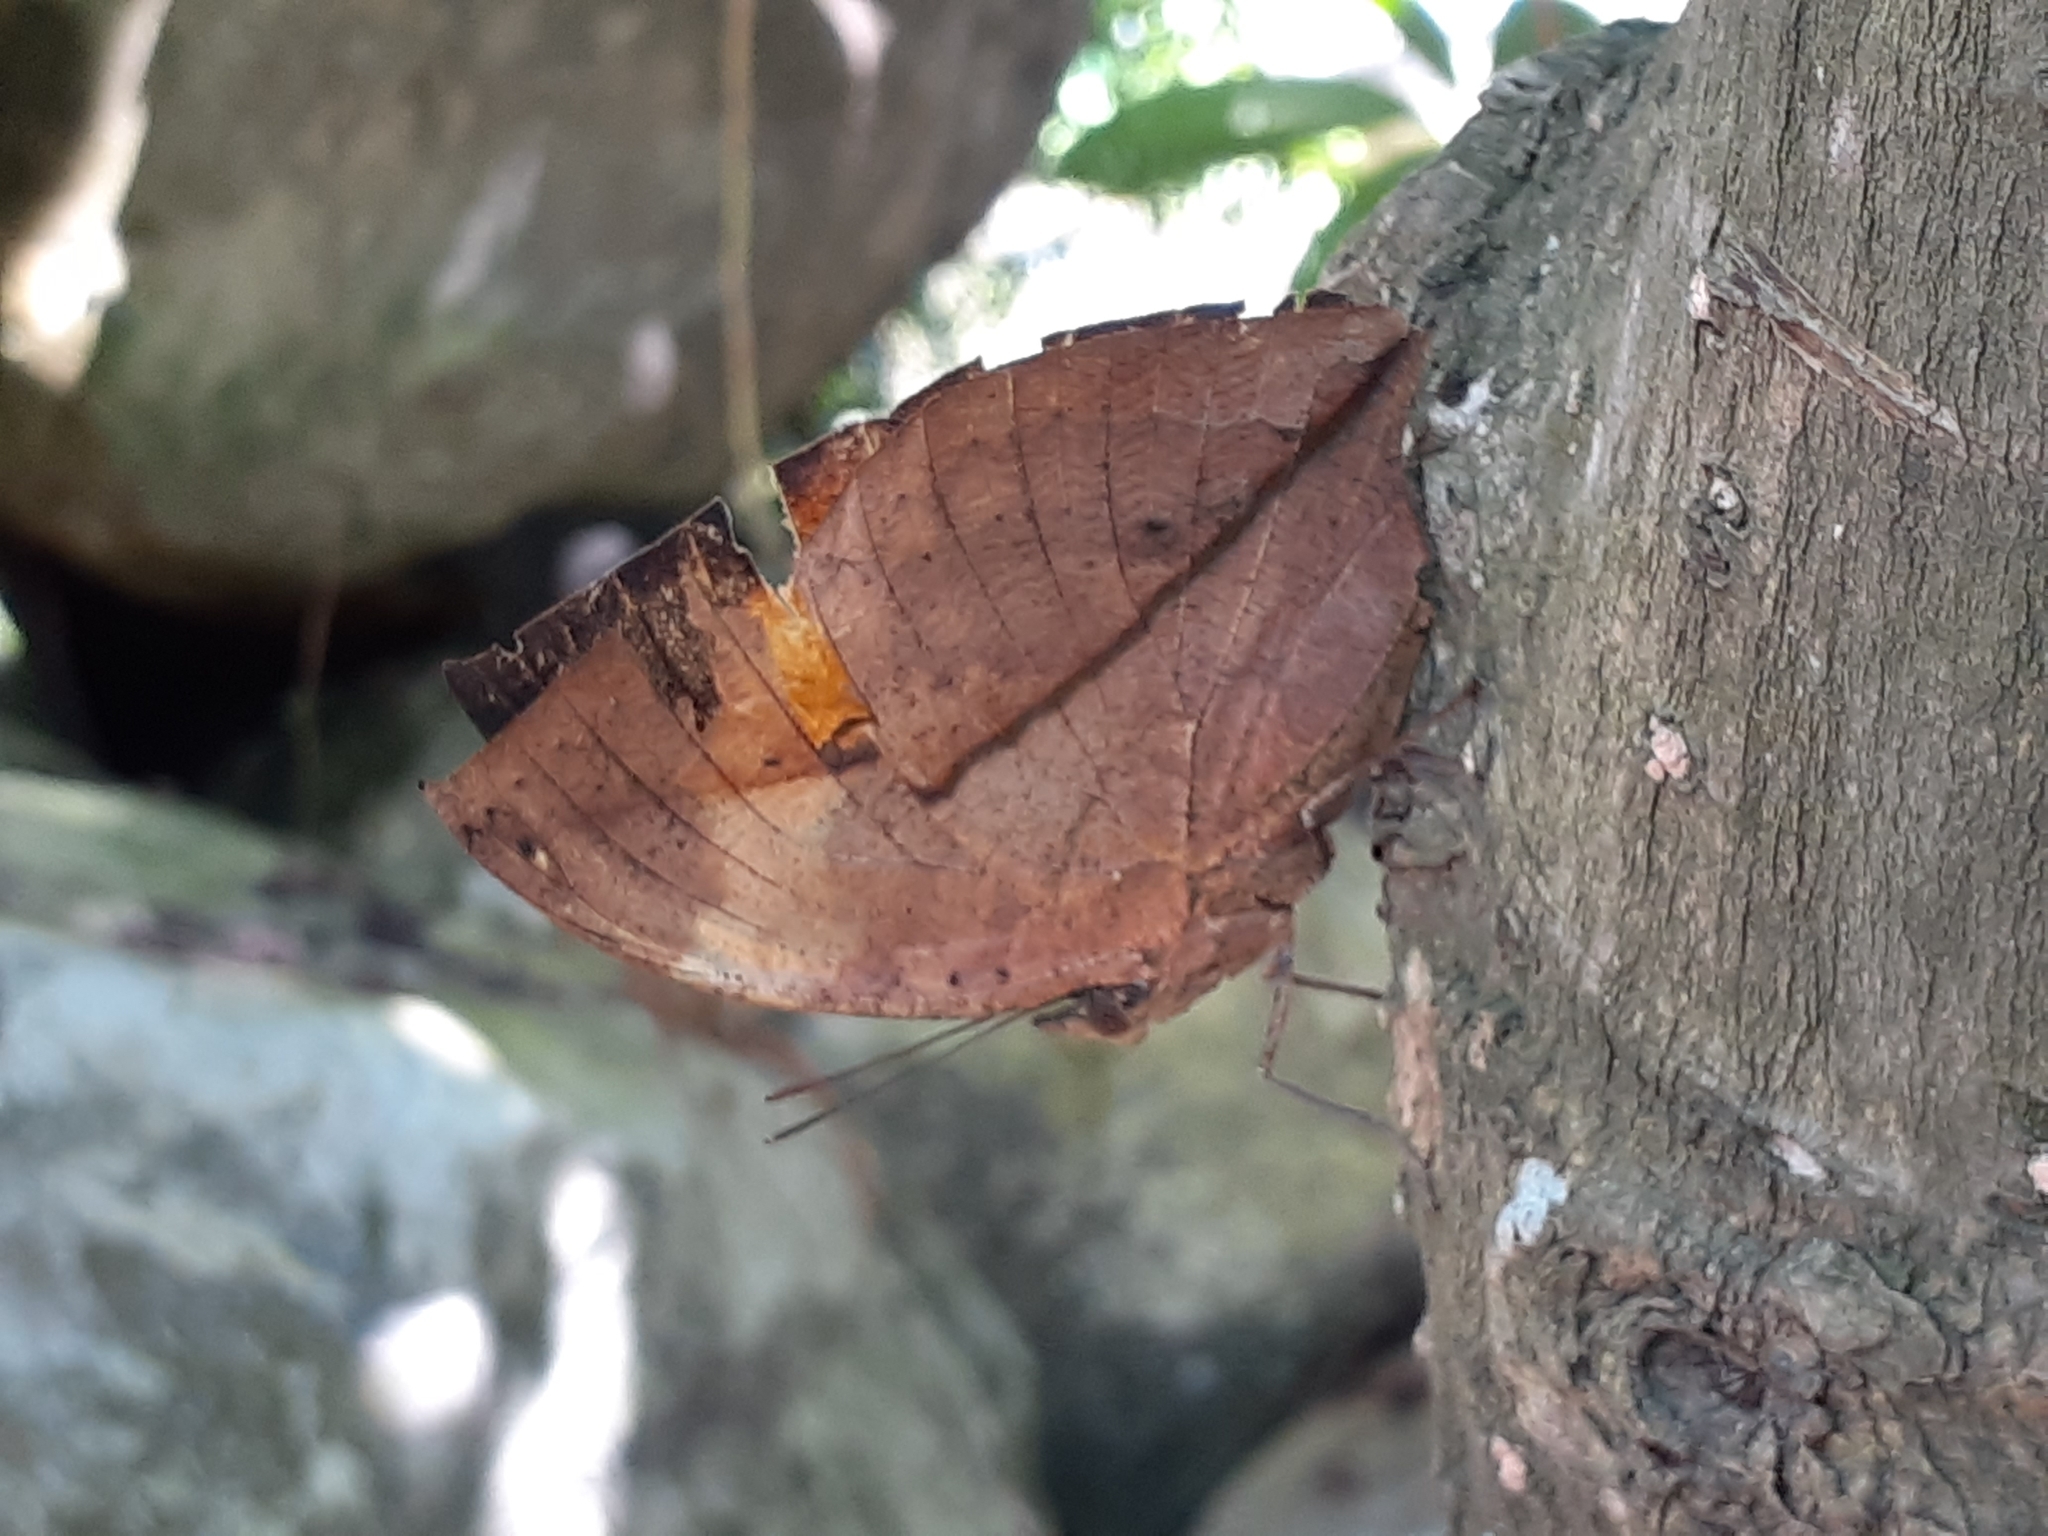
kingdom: Animalia
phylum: Arthropoda
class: Insecta
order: Lepidoptera
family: Nymphalidae
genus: Kallima
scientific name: Kallima inachus
